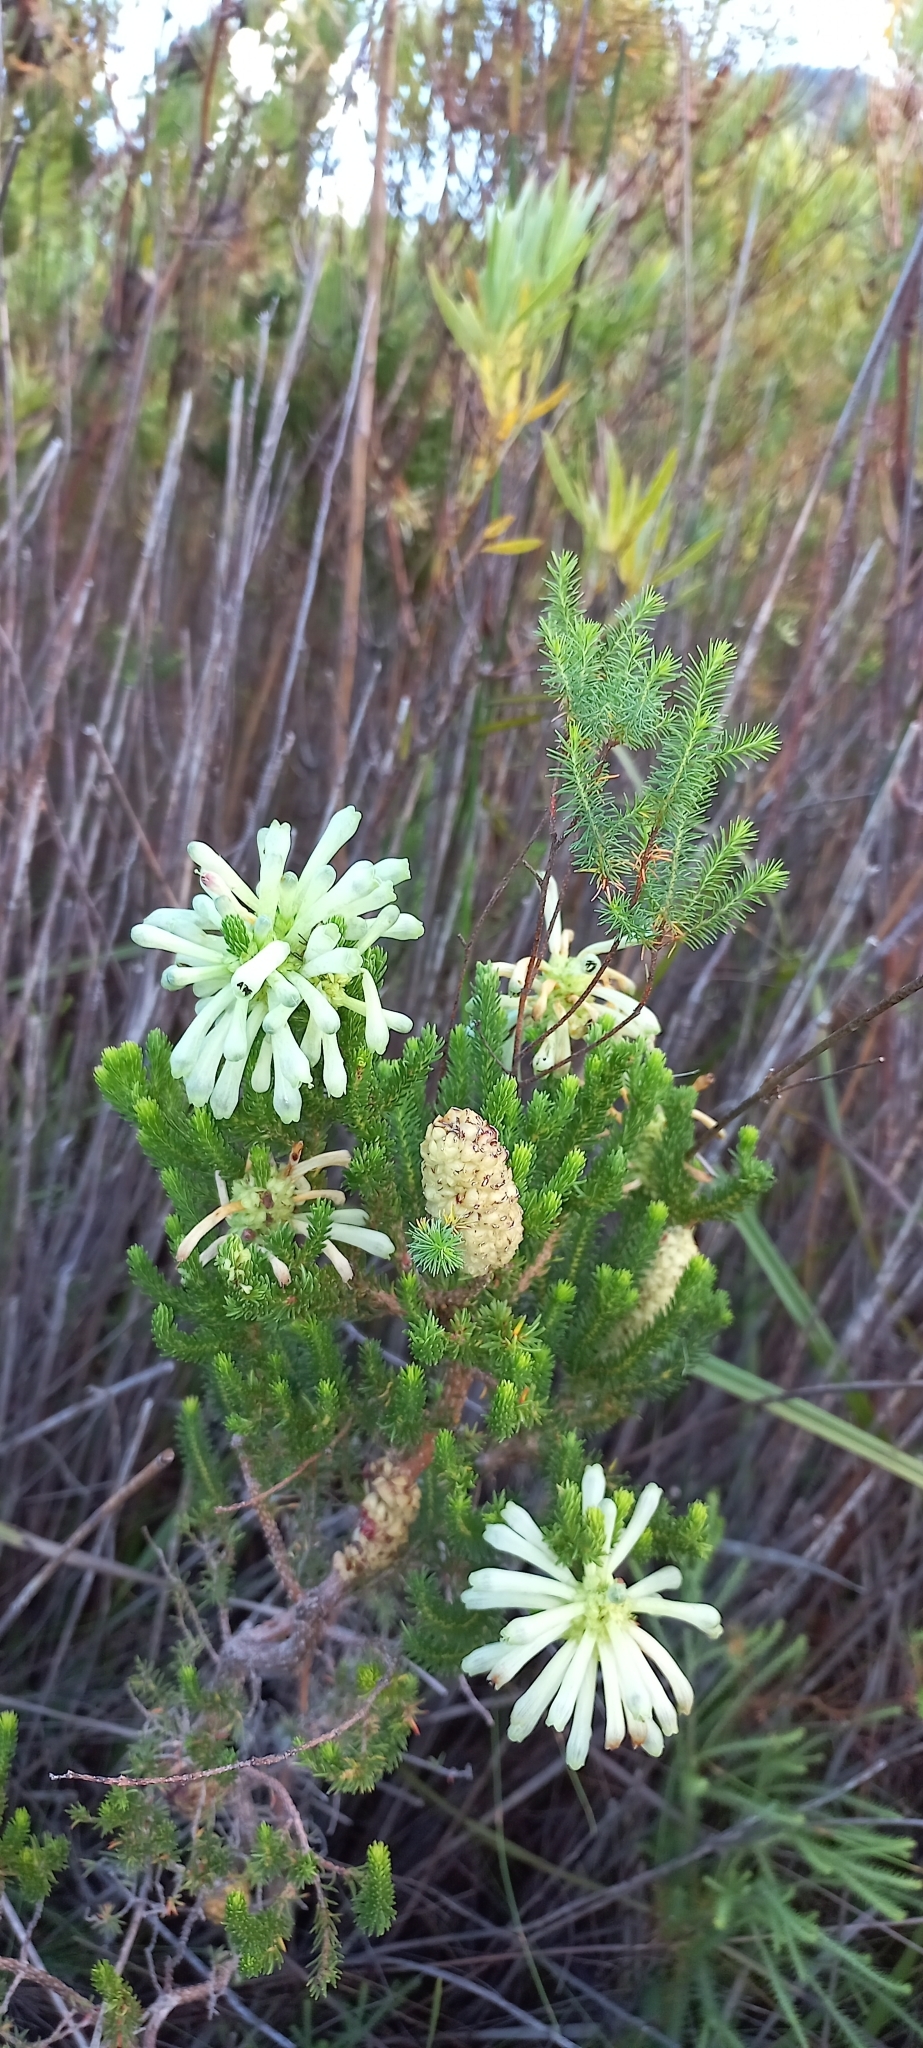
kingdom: Plantae
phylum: Tracheophyta
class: Magnoliopsida
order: Ericales
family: Ericaceae
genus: Erica
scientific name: Erica sessiliflora
